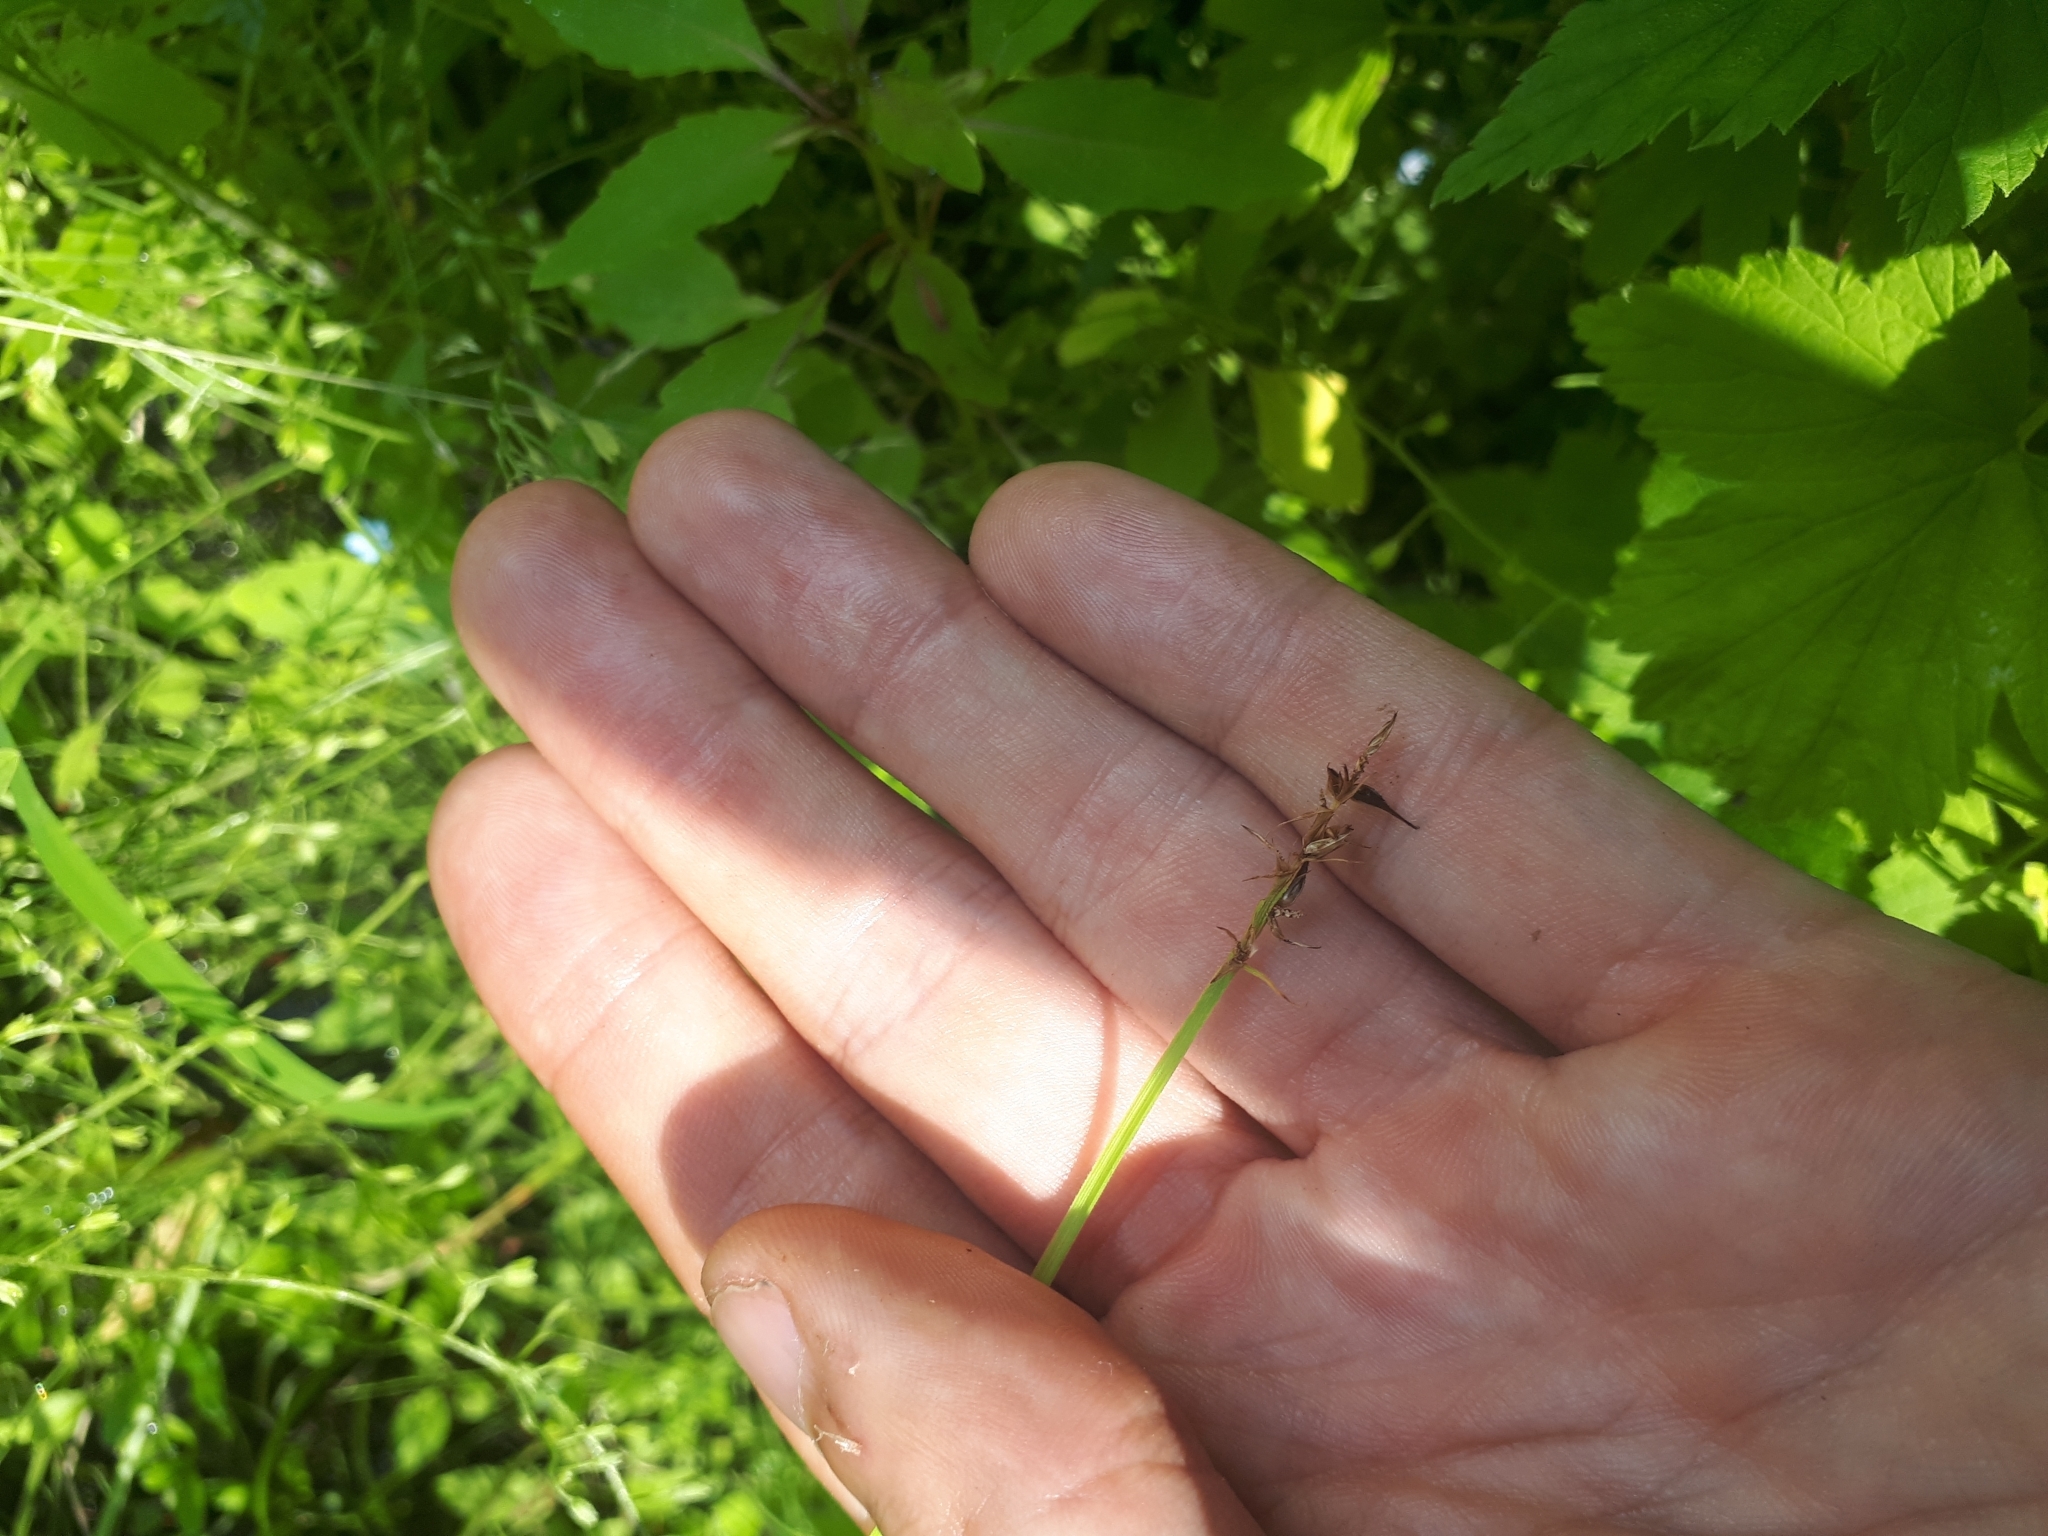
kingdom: Plantae
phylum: Tracheophyta
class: Liliopsida
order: Poales
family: Cyperaceae
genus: Carex
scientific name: Carex stipata
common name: Awl-fruited sedge
